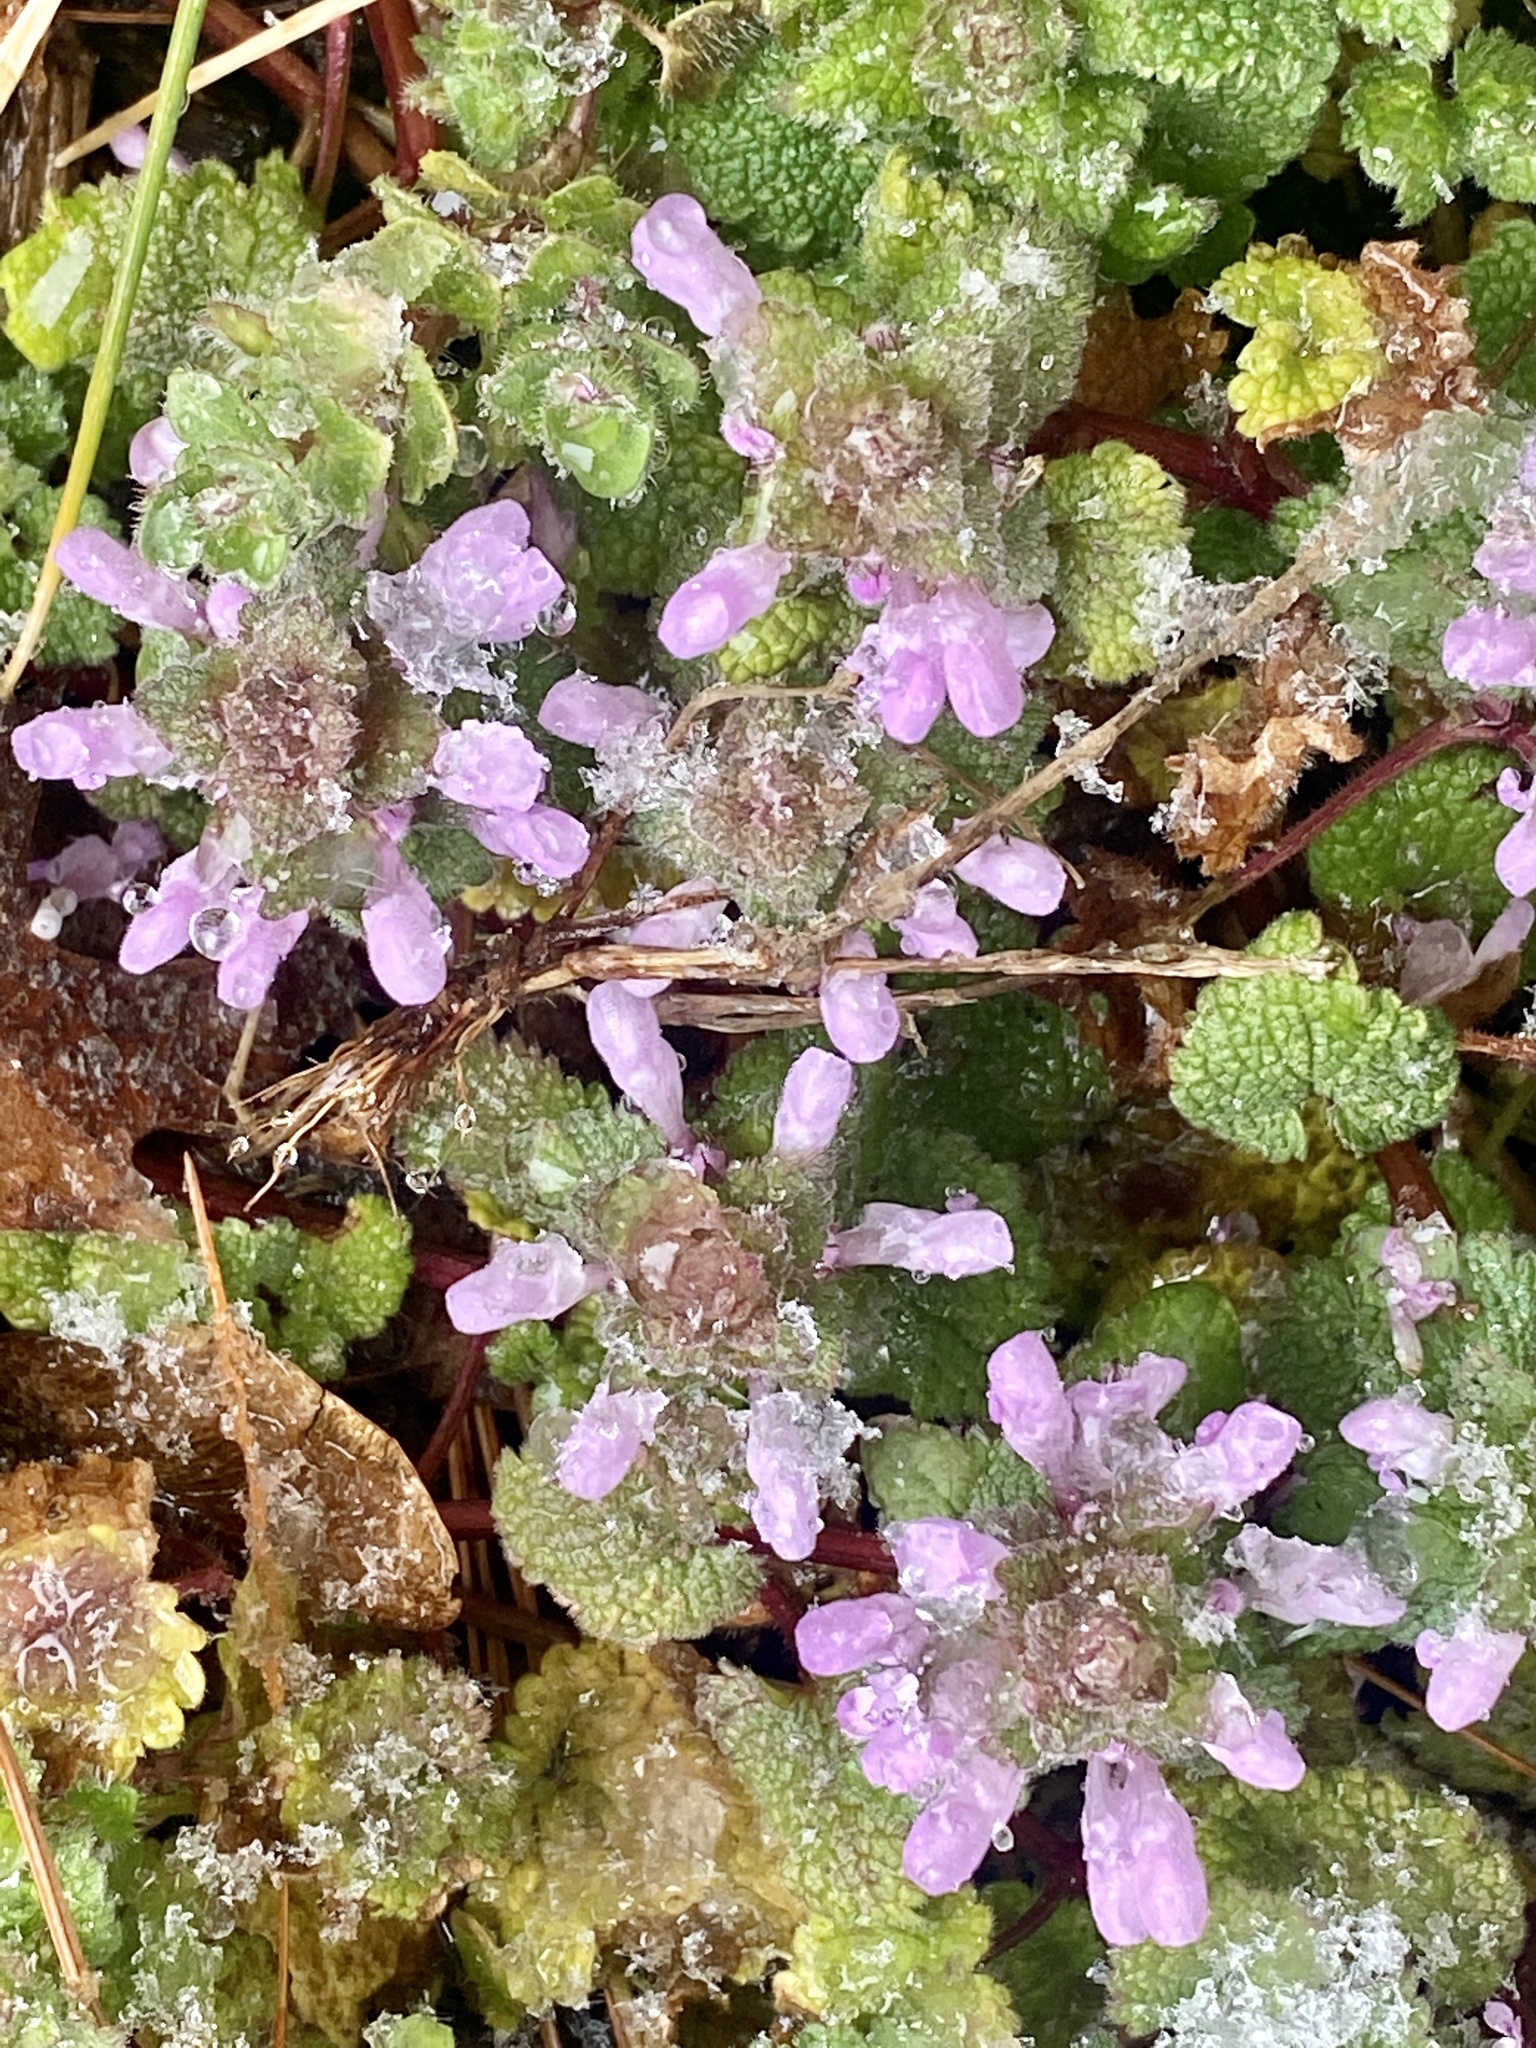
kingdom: Plantae
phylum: Tracheophyta
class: Magnoliopsida
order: Lamiales
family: Lamiaceae
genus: Lamium
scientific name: Lamium purpureum
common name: Red dead-nettle
